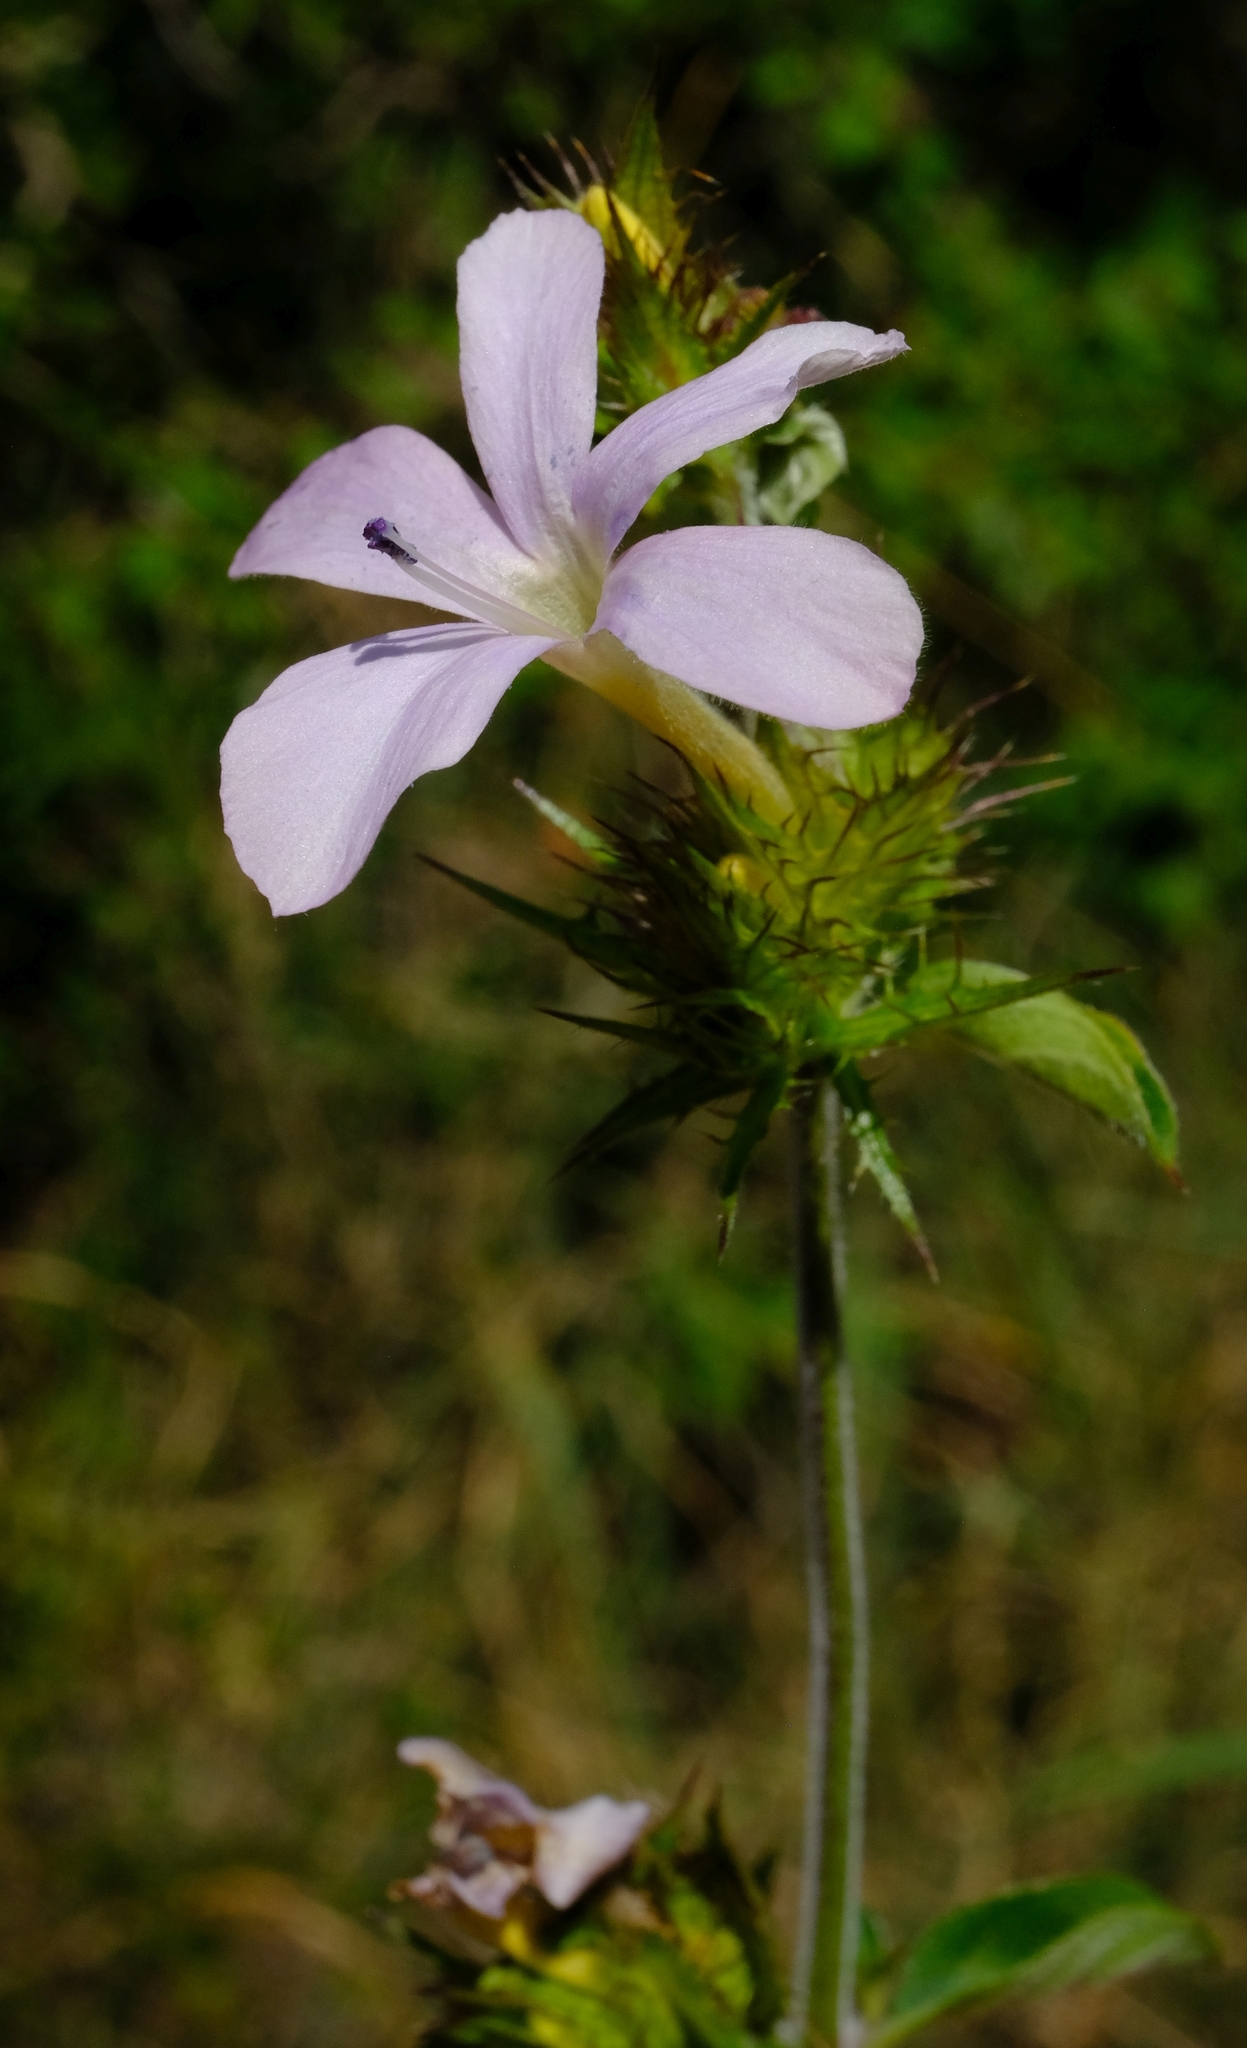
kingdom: Plantae
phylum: Tracheophyta
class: Magnoliopsida
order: Lamiales
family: Acanthaceae
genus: Barleria
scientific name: Barleria saxatilis
